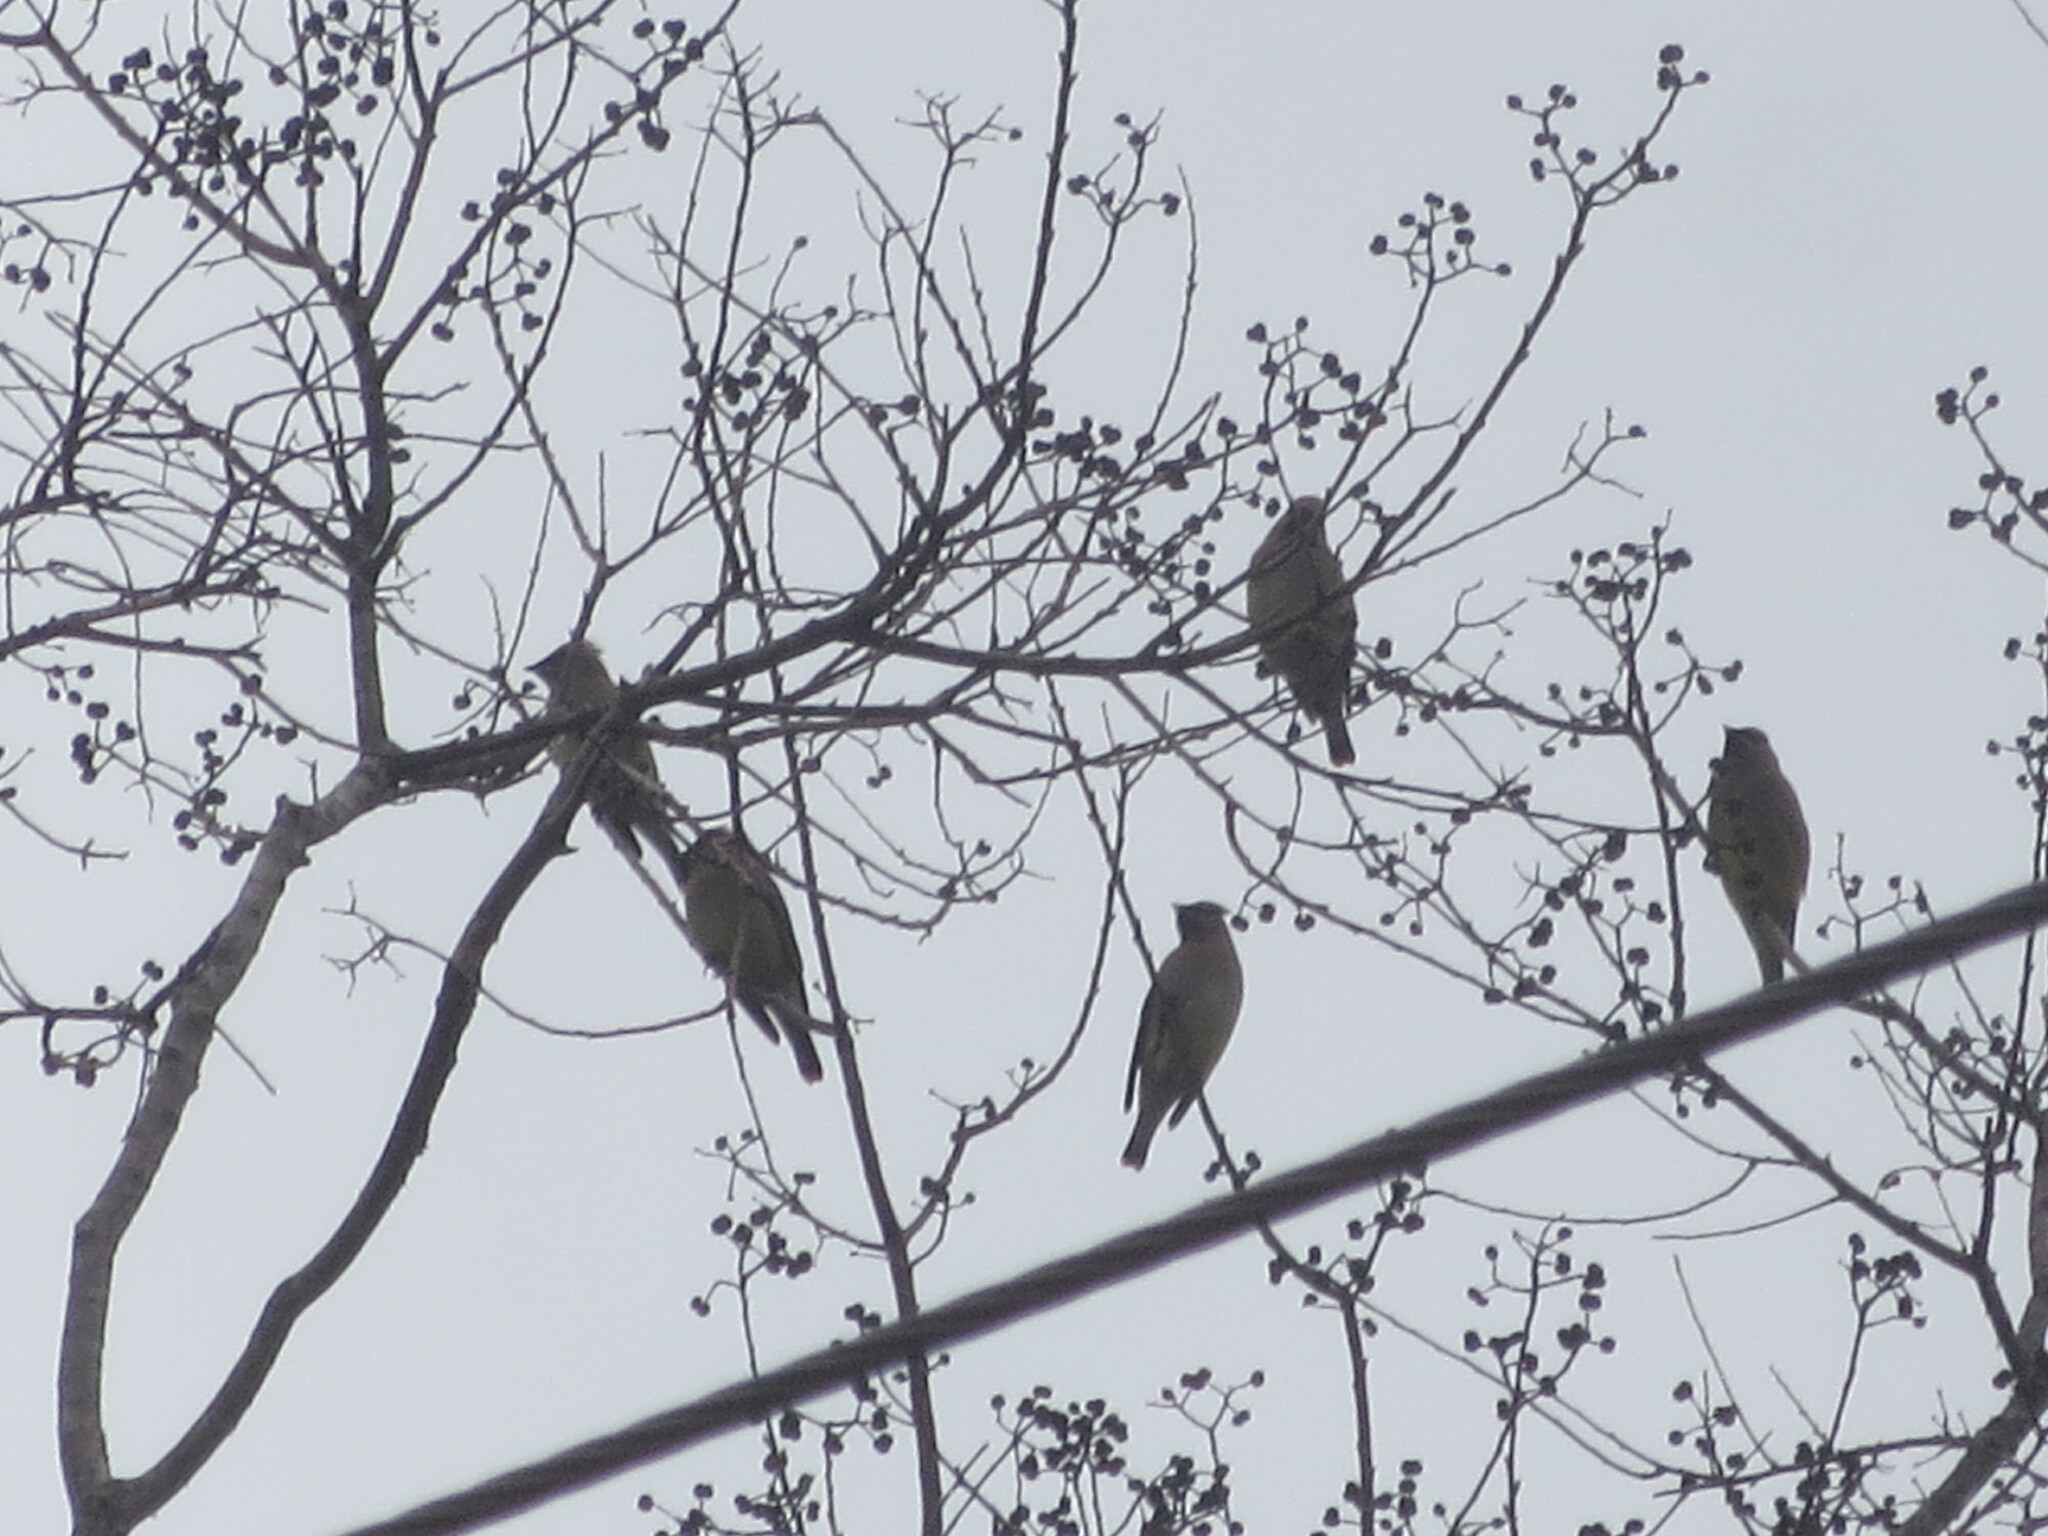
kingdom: Animalia
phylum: Chordata
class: Aves
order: Passeriformes
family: Bombycillidae
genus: Bombycilla
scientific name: Bombycilla cedrorum
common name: Cedar waxwing
